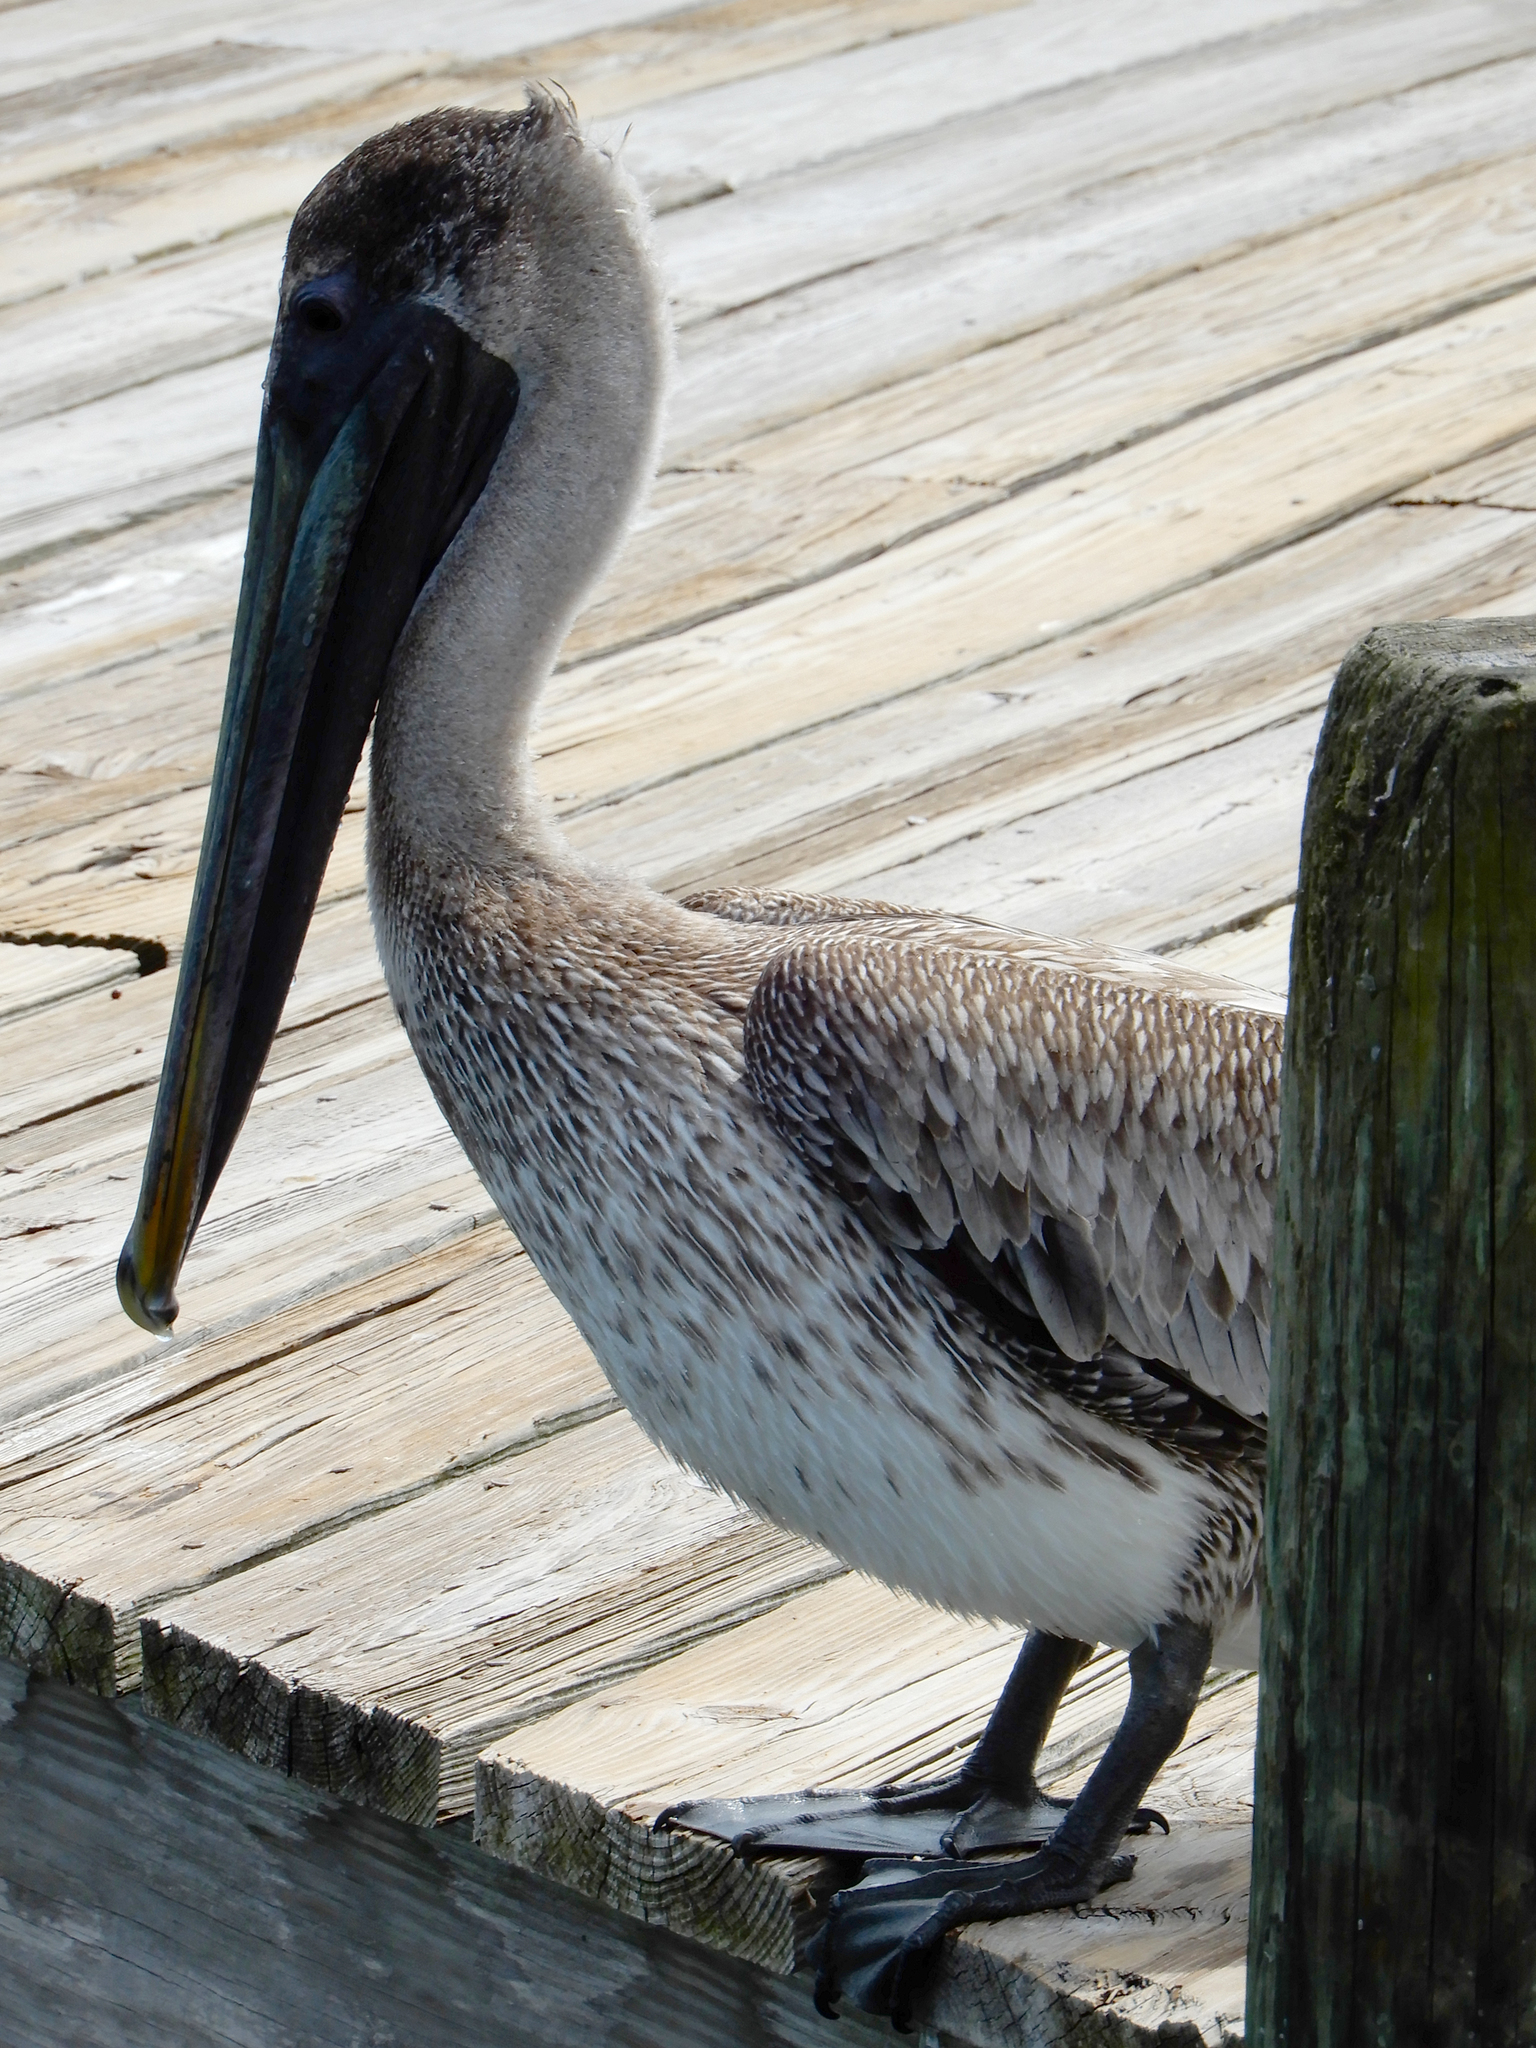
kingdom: Animalia
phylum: Chordata
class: Aves
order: Pelecaniformes
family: Pelecanidae
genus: Pelecanus
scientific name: Pelecanus occidentalis
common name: Brown pelican
